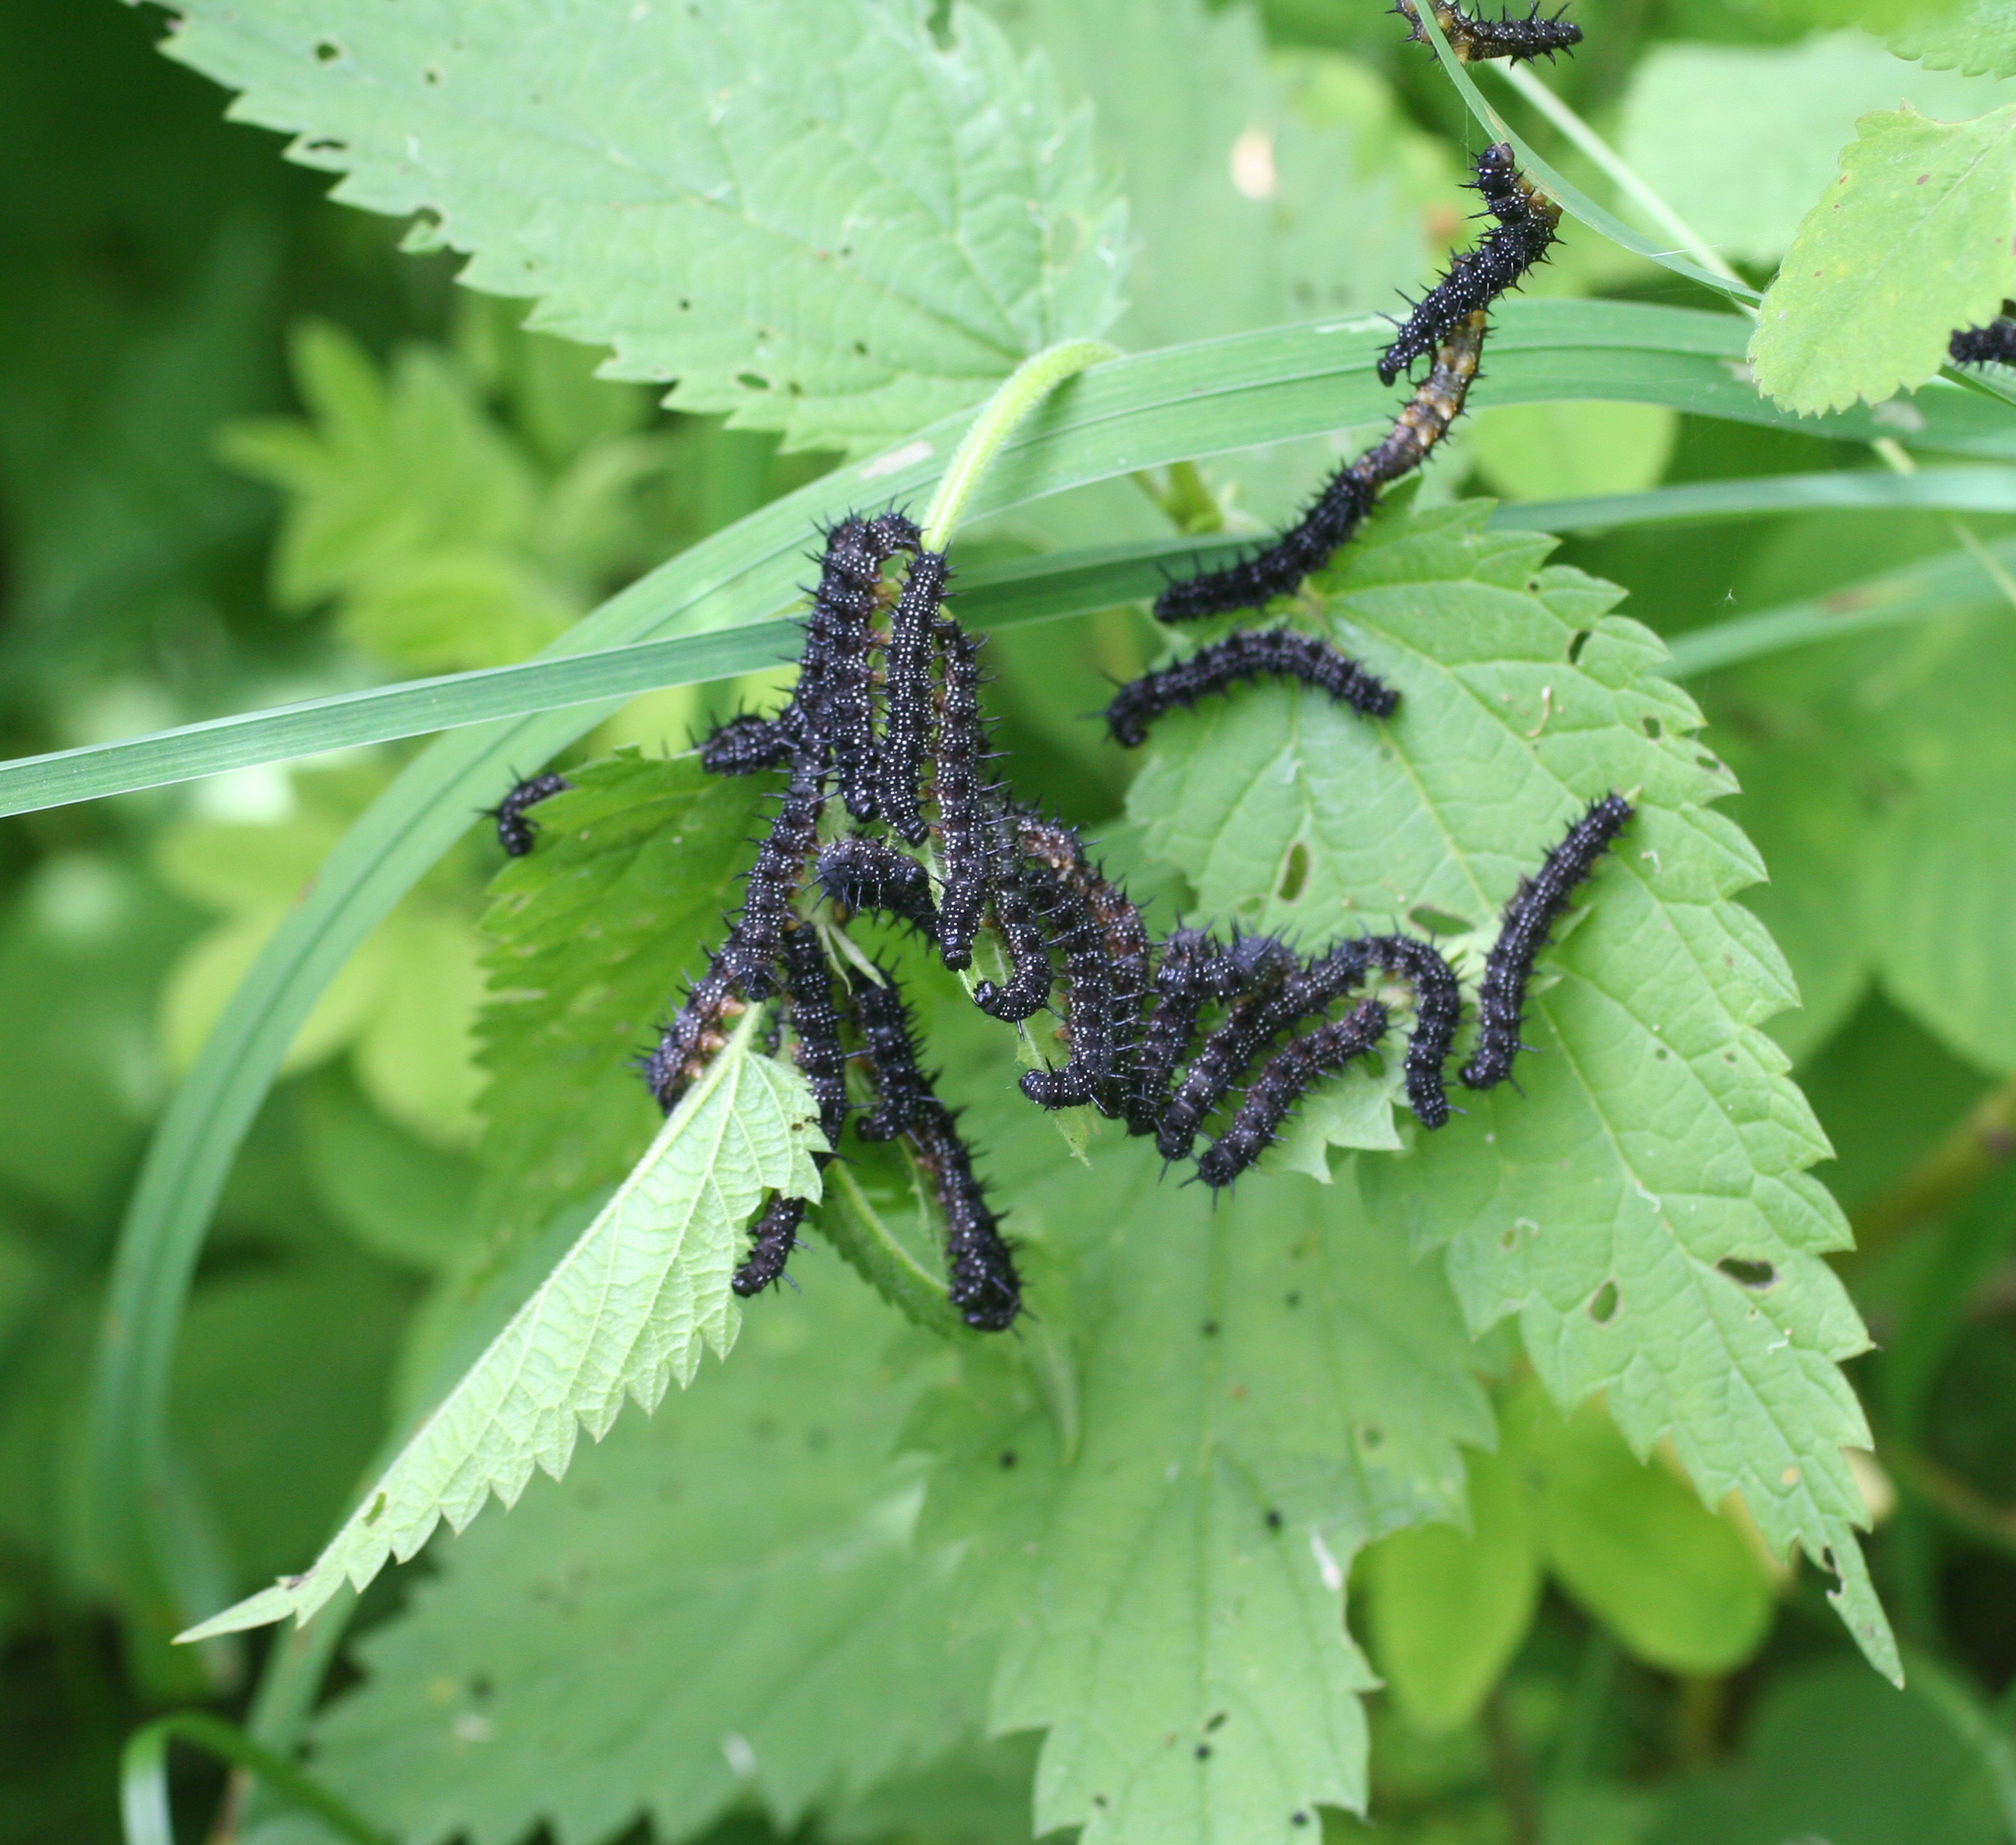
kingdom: Animalia
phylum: Arthropoda
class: Insecta
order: Lepidoptera
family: Nymphalidae
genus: Aglais
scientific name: Aglais io
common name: Peacock
